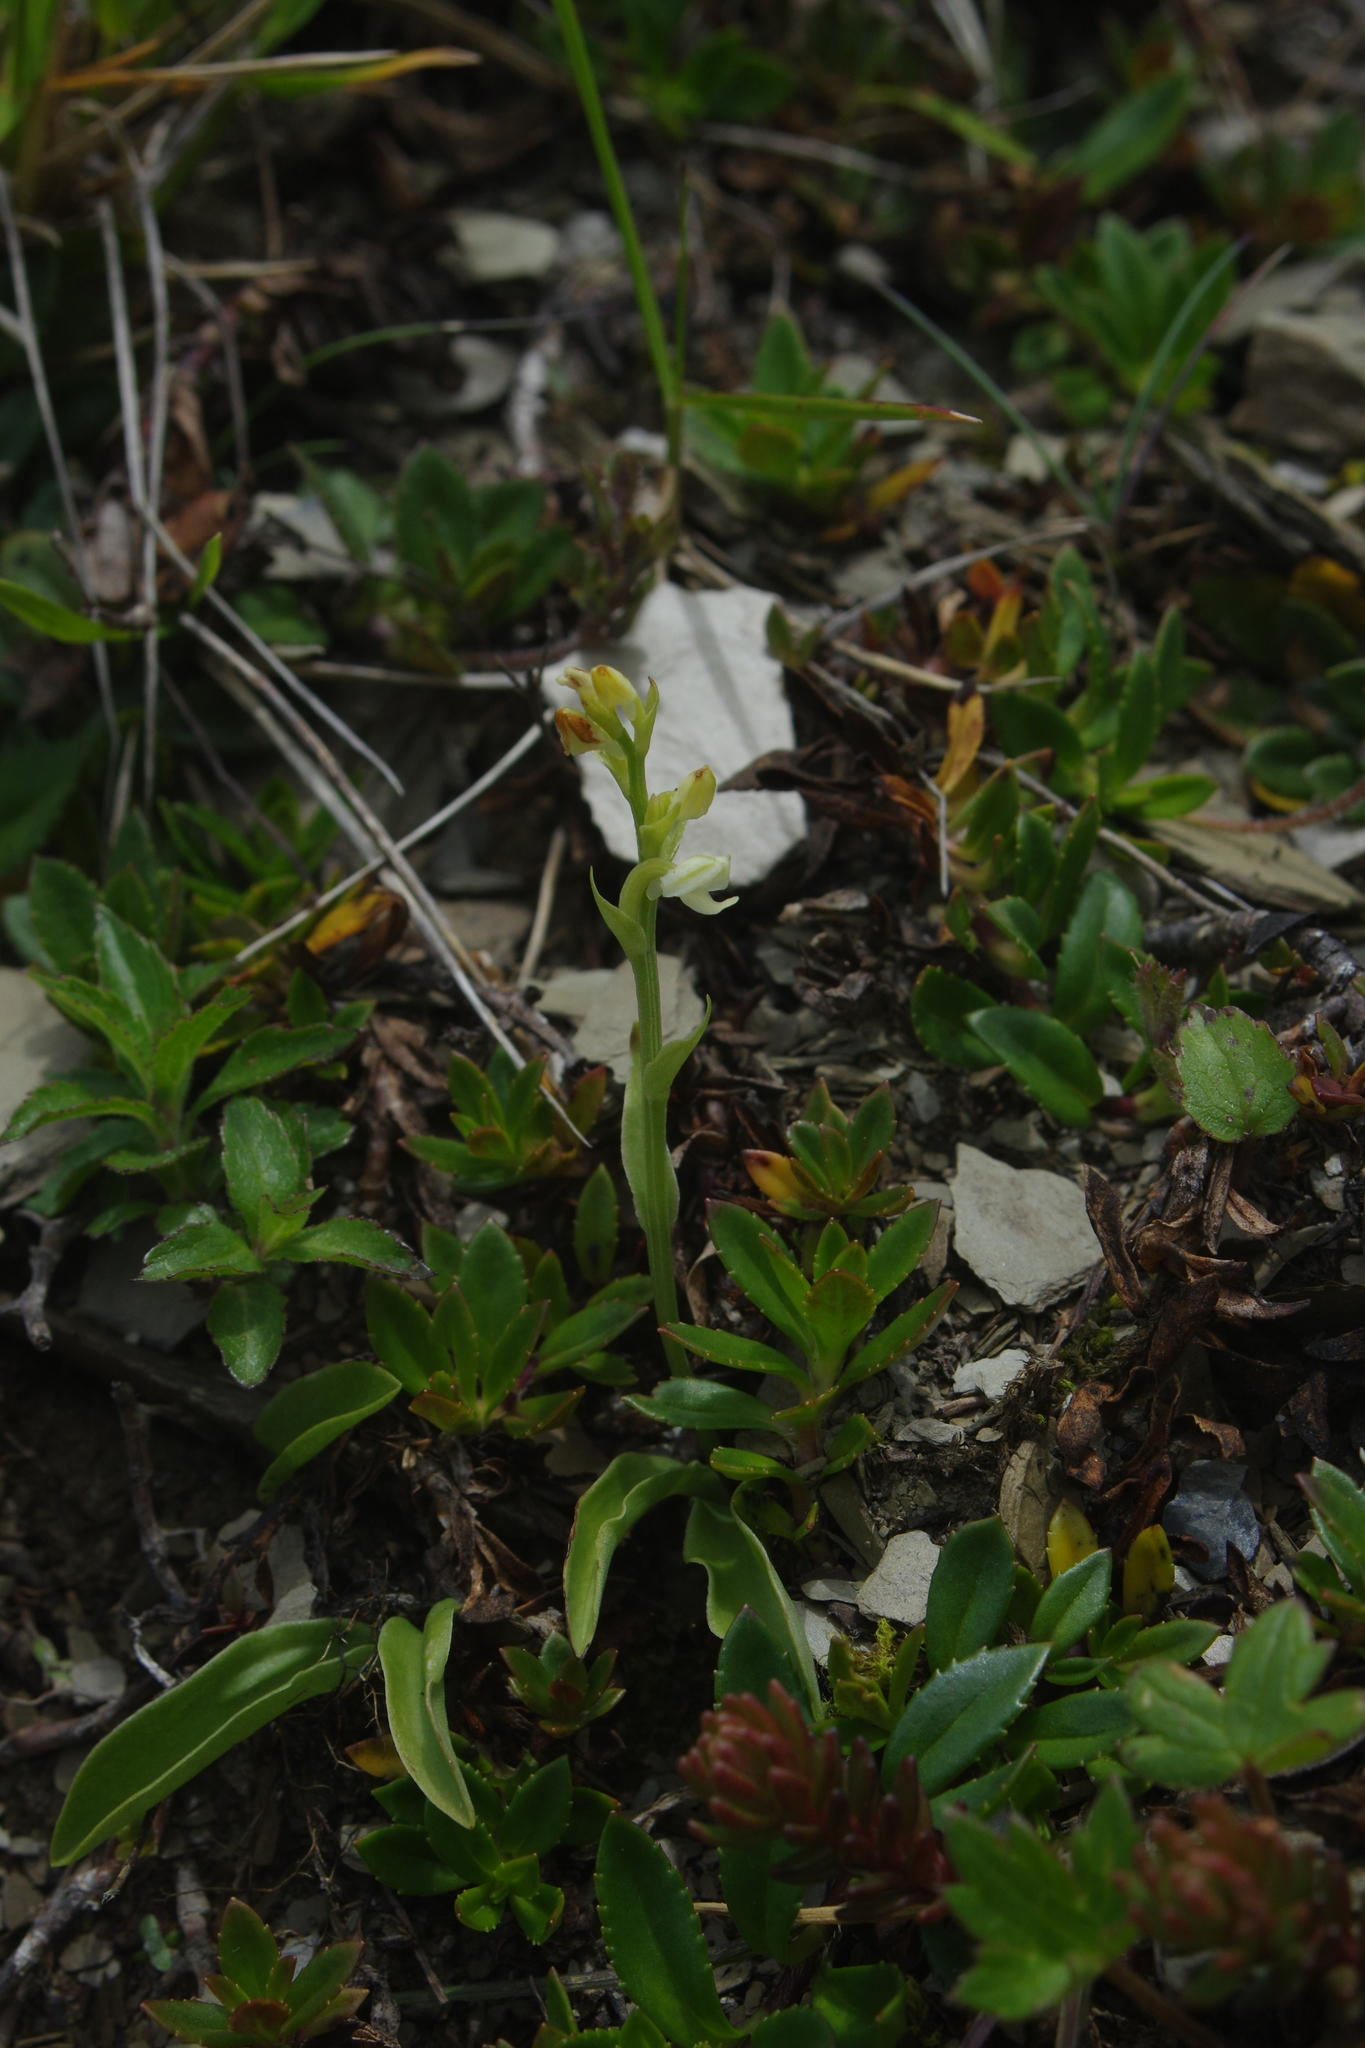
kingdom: Plantae
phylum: Tracheophyta
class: Liliopsida
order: Asparagales
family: Orchidaceae
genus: Platanthera
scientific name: Platanthera brevicalcarata
